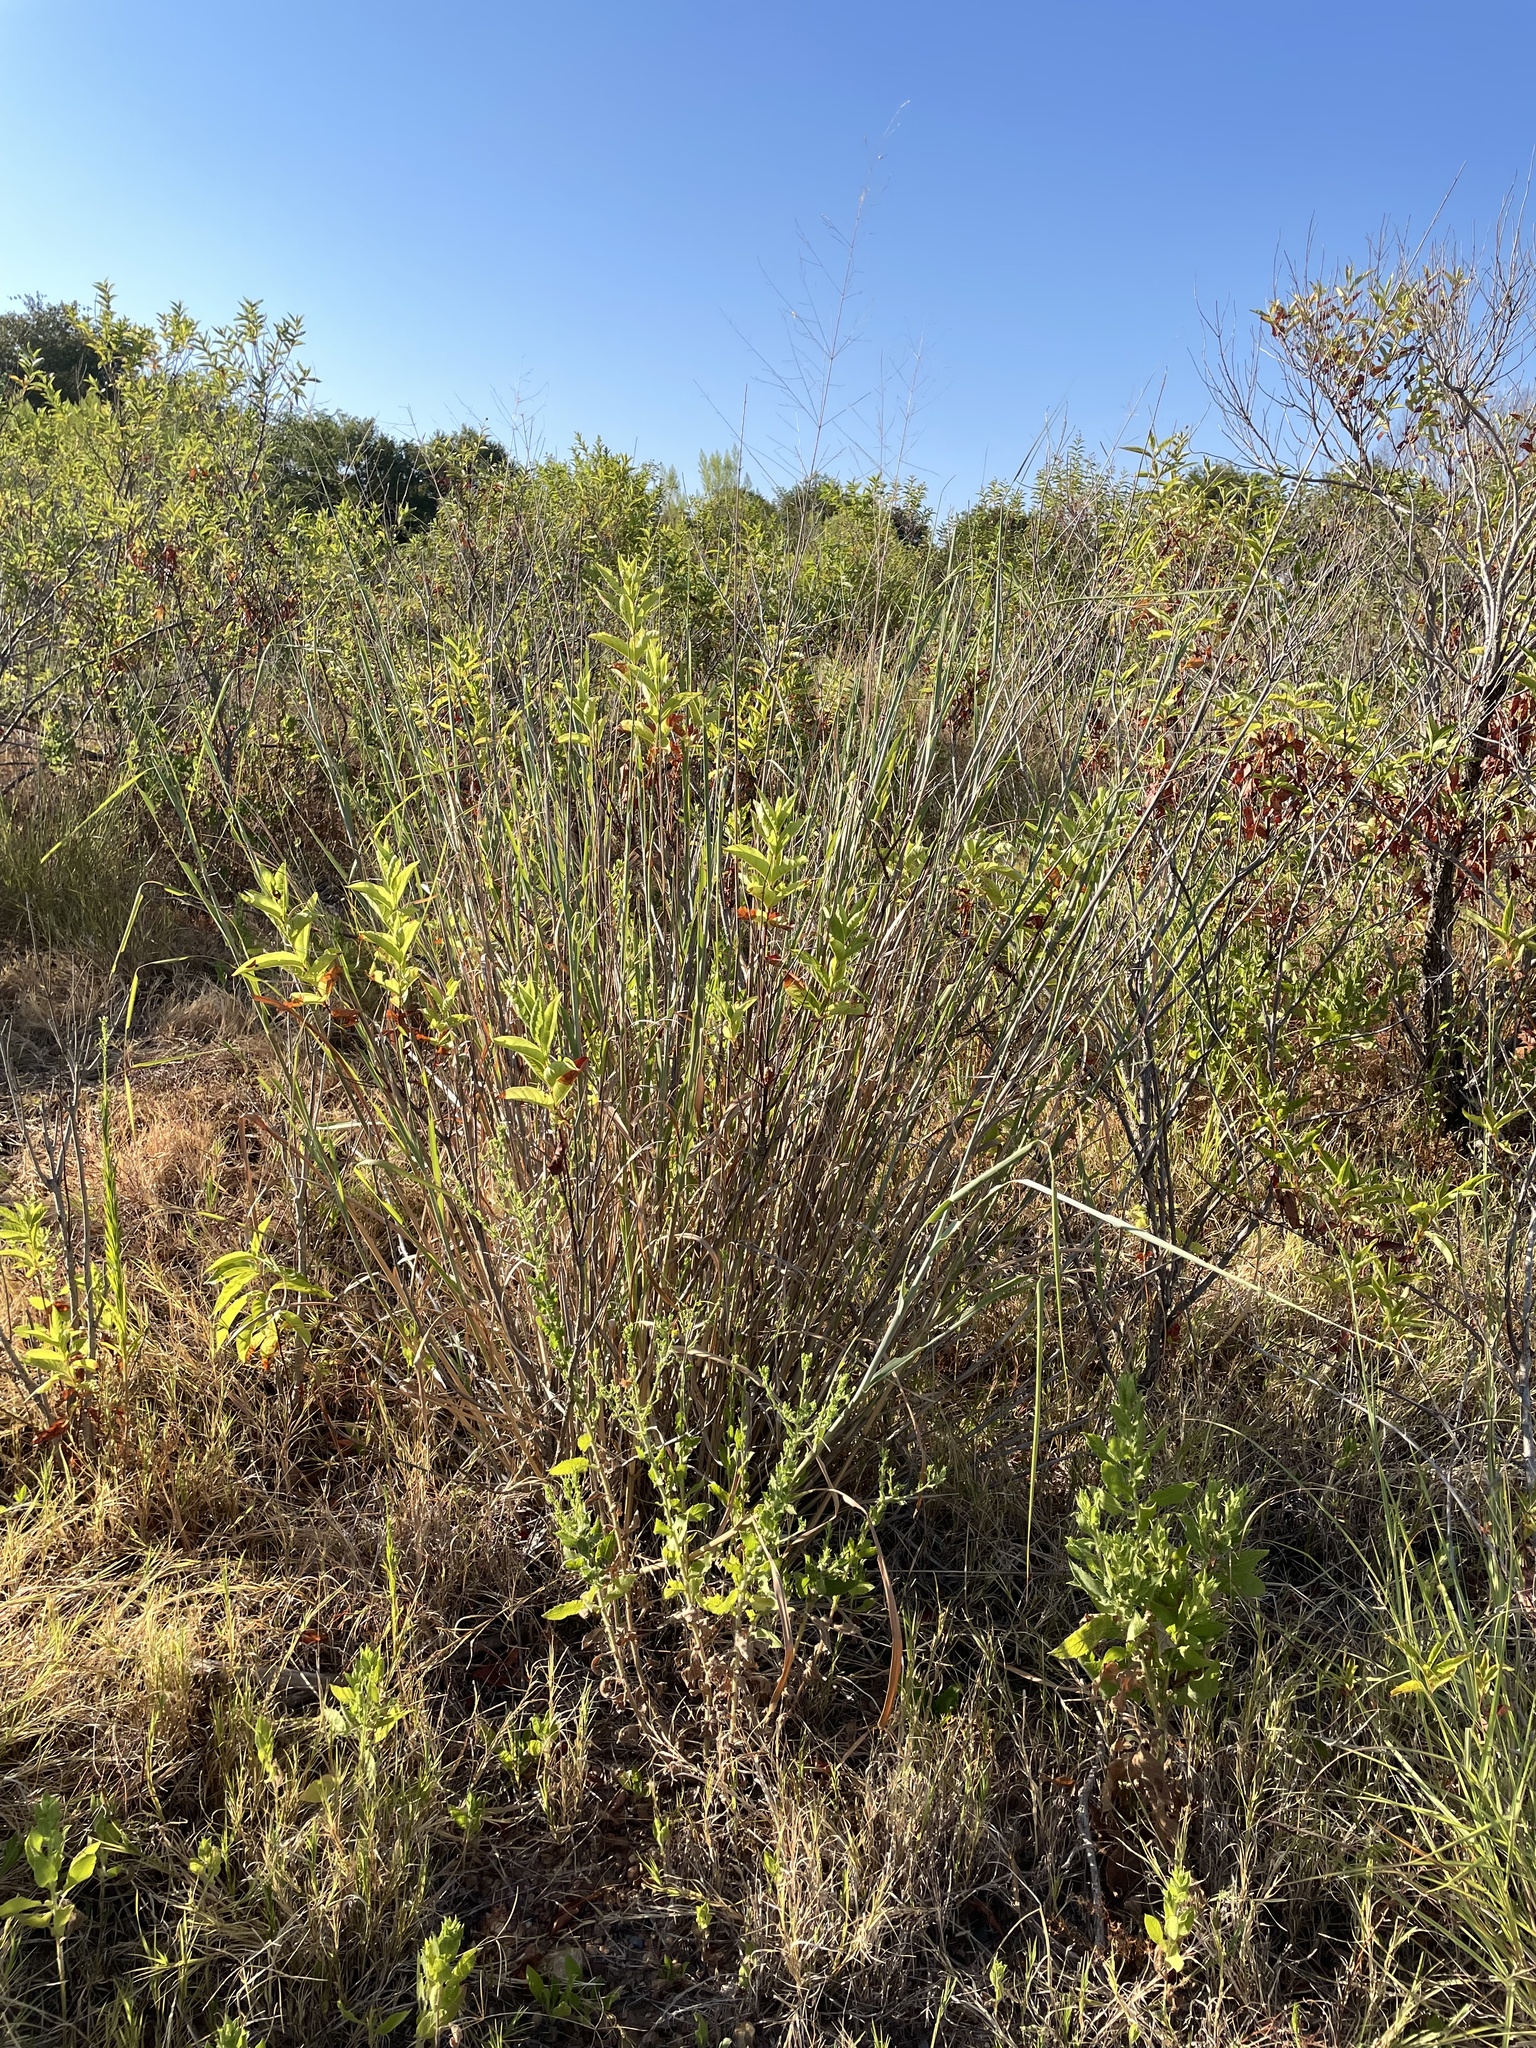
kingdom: Plantae
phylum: Tracheophyta
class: Liliopsida
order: Poales
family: Poaceae
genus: Panicum
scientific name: Panicum virgatum
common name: Switchgrass
